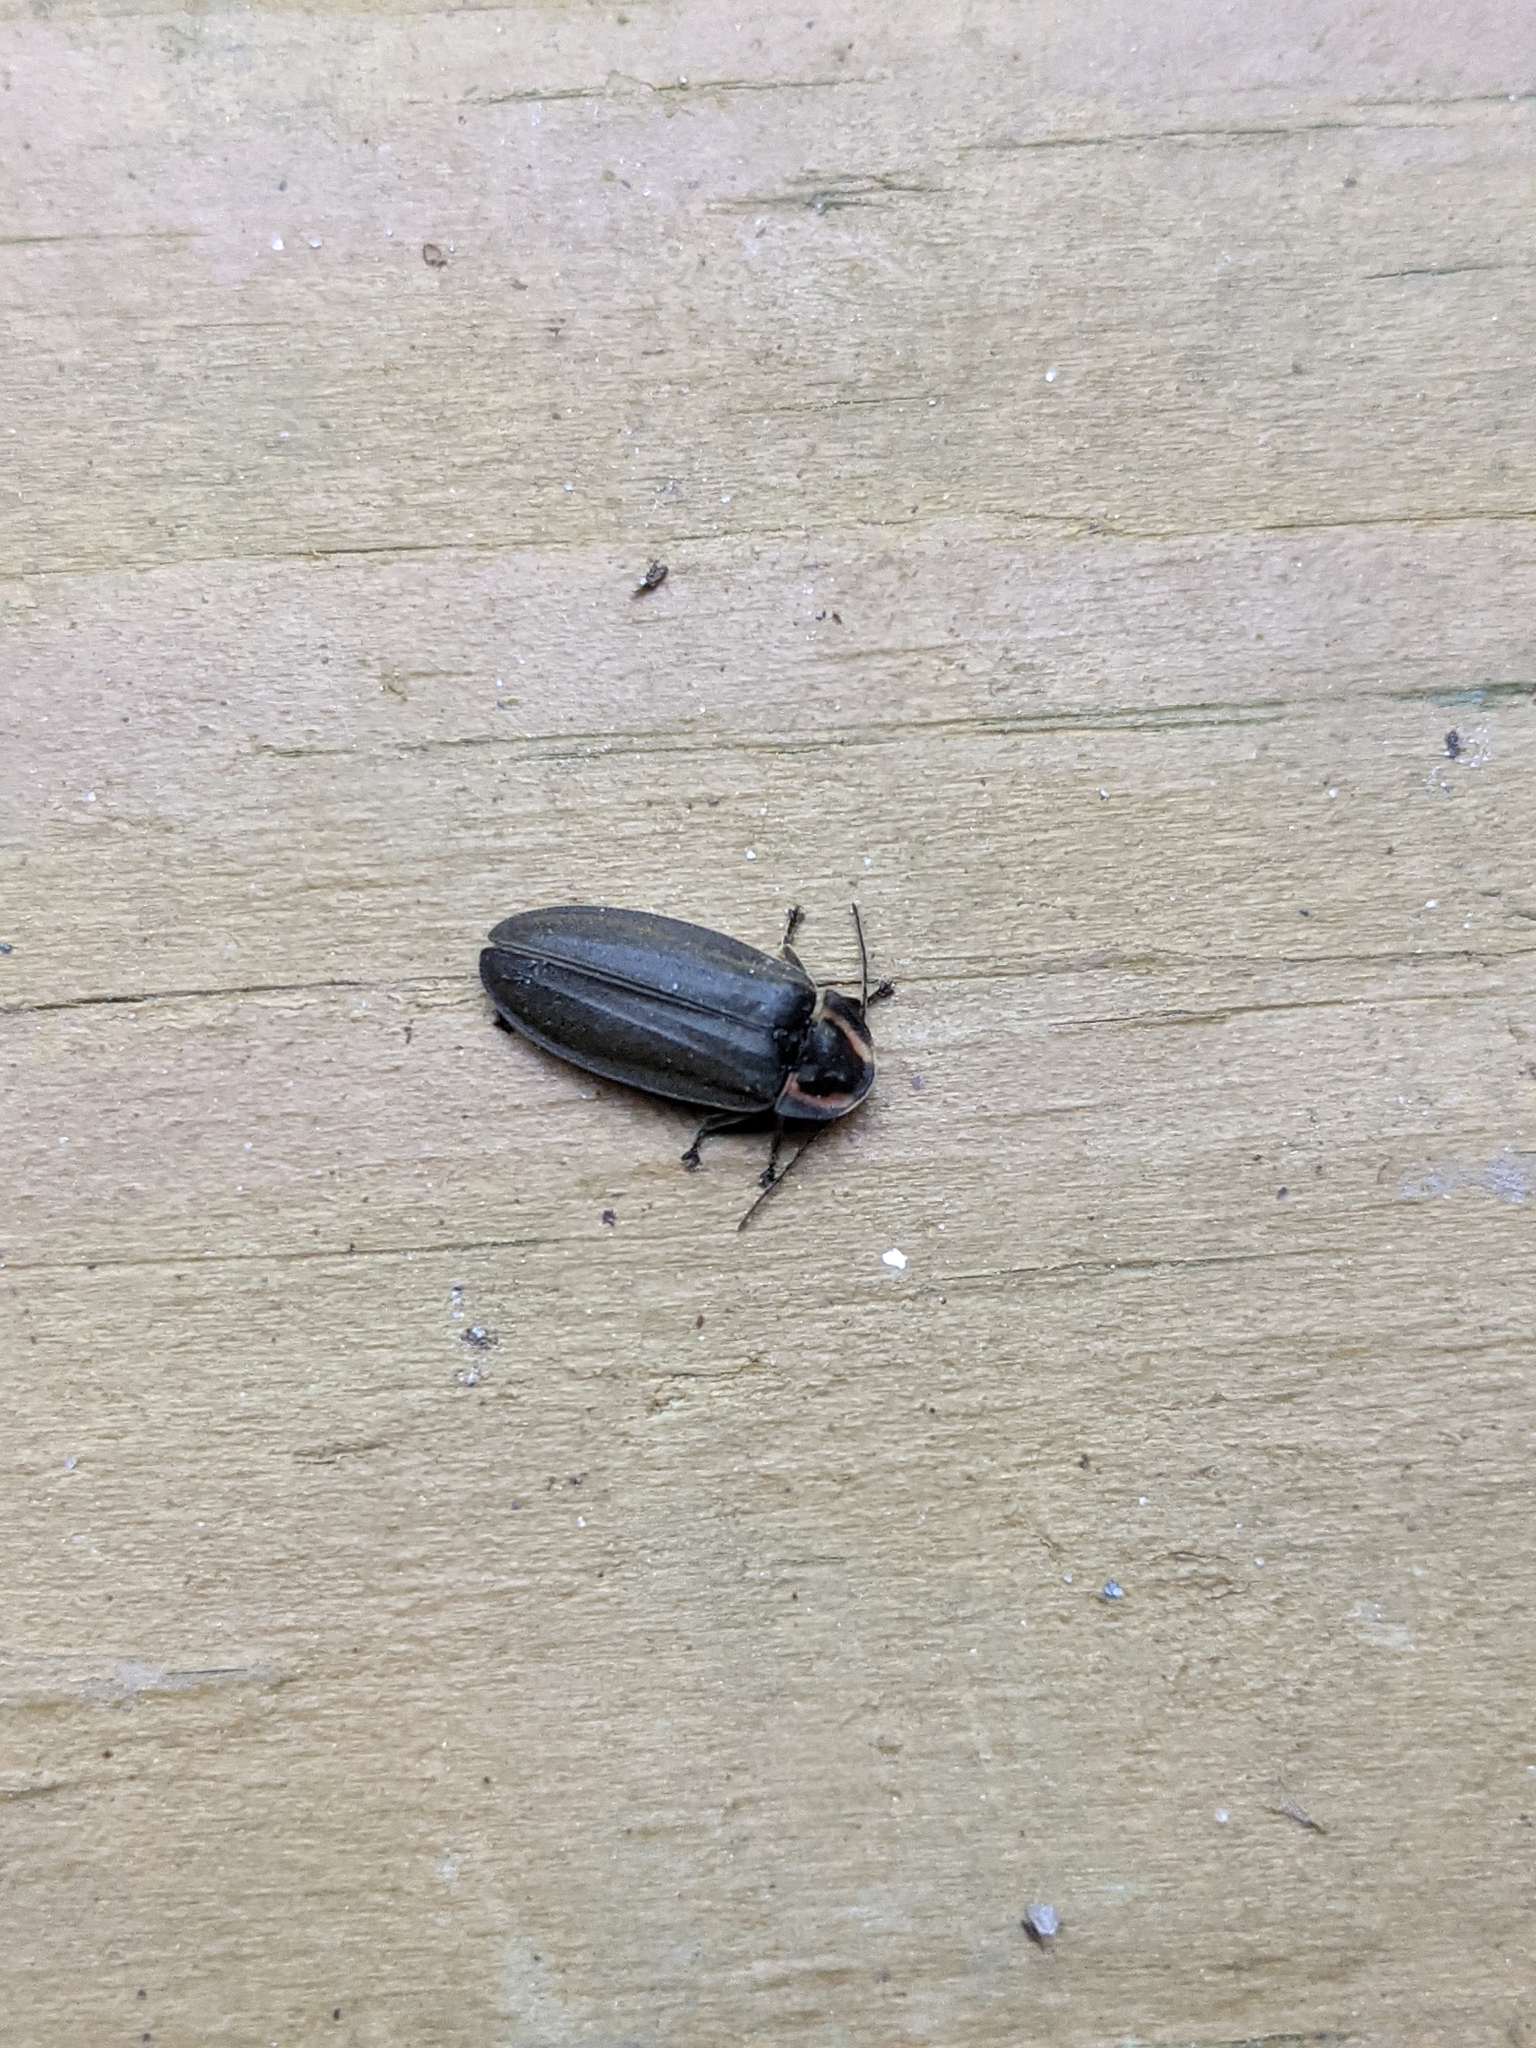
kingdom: Animalia
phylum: Arthropoda
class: Insecta
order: Coleoptera
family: Lampyridae
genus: Photinus
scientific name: Photinus corrusca
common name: Winter firefly
